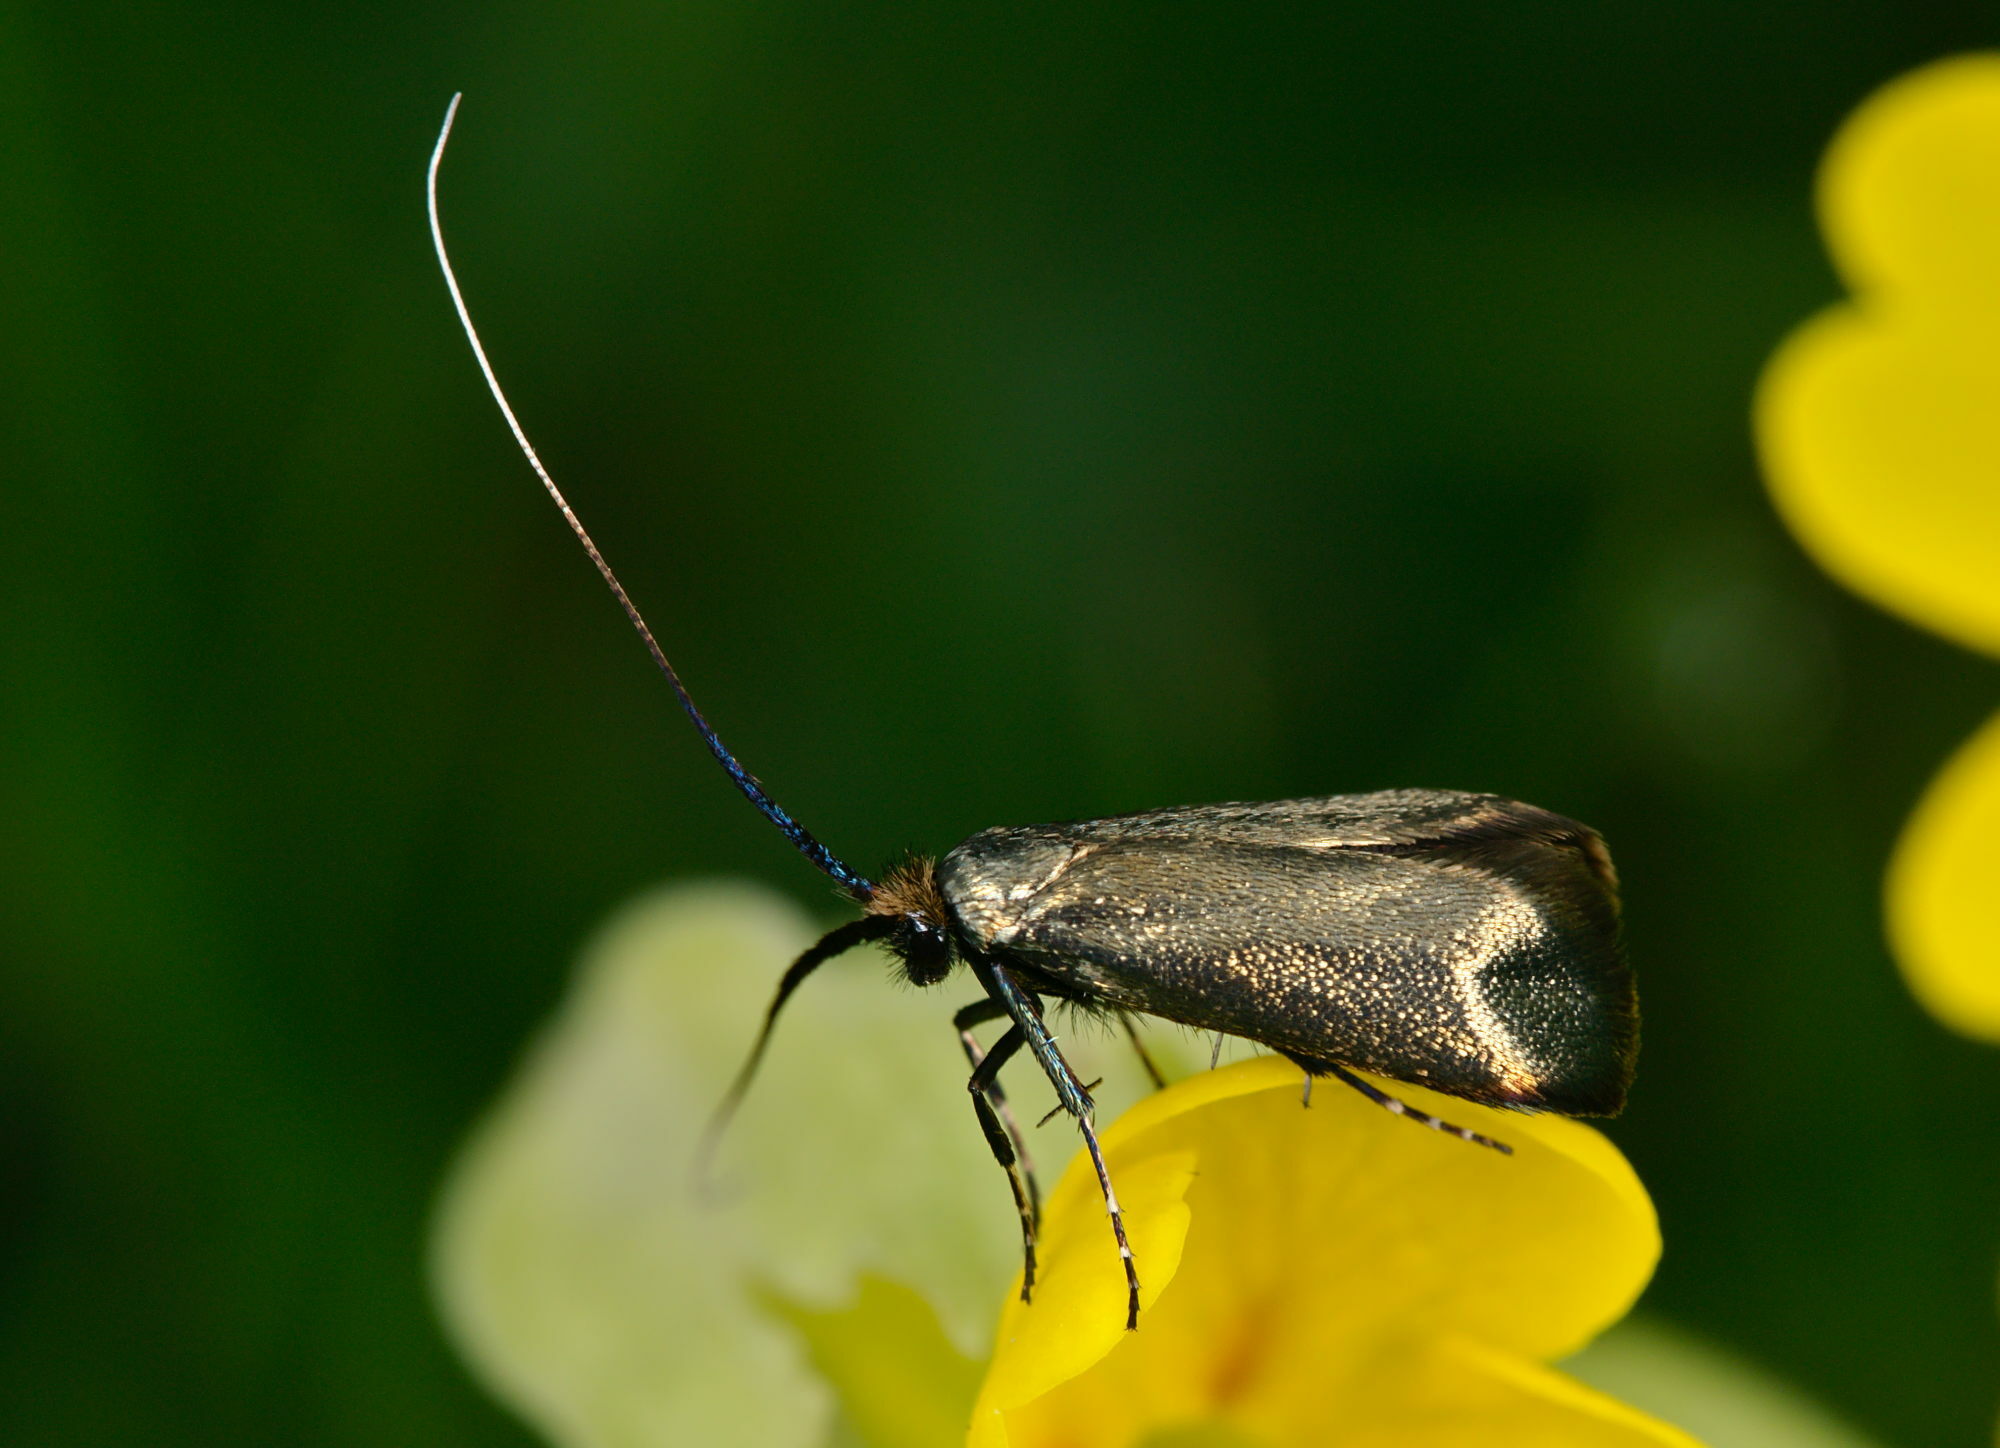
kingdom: Animalia
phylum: Arthropoda
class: Insecta
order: Lepidoptera
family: Adelidae
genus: Adela
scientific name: Adela viridella
